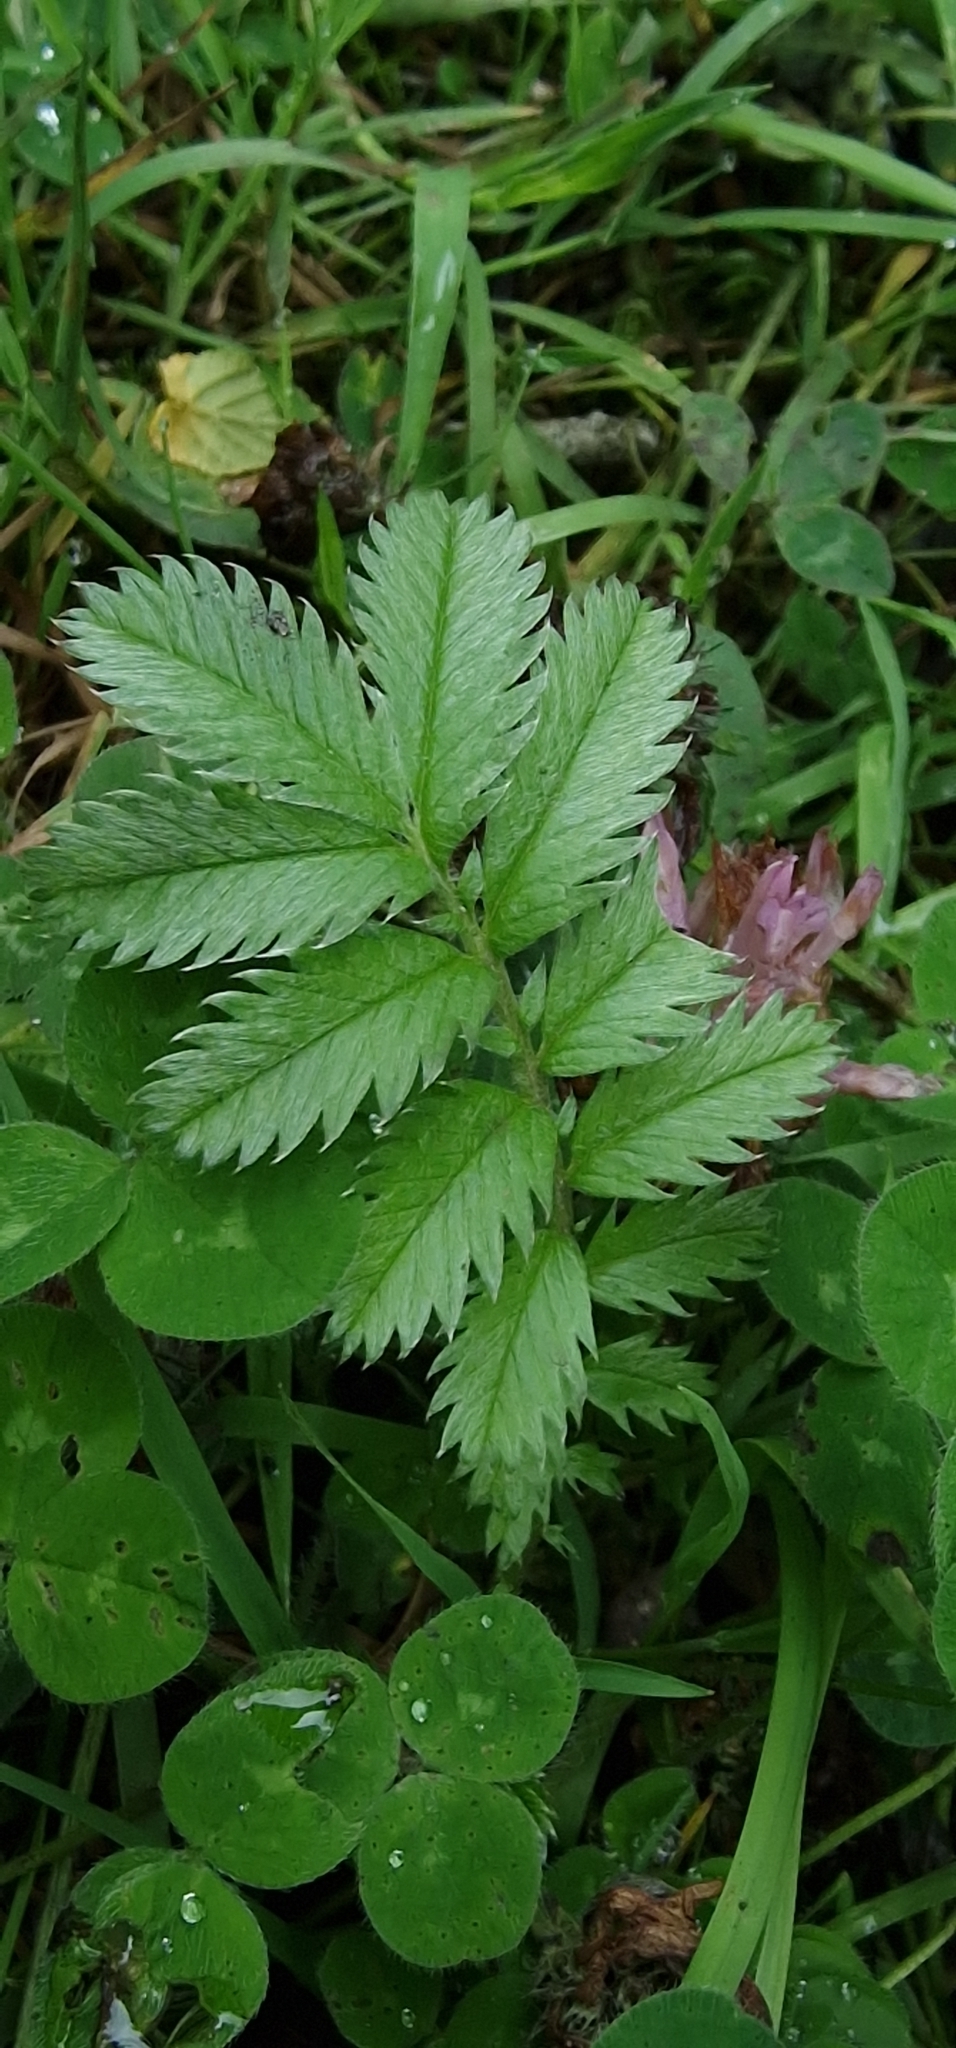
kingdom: Plantae
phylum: Tracheophyta
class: Magnoliopsida
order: Rosales
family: Rosaceae
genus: Argentina
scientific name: Argentina anserina
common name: Common silverweed
